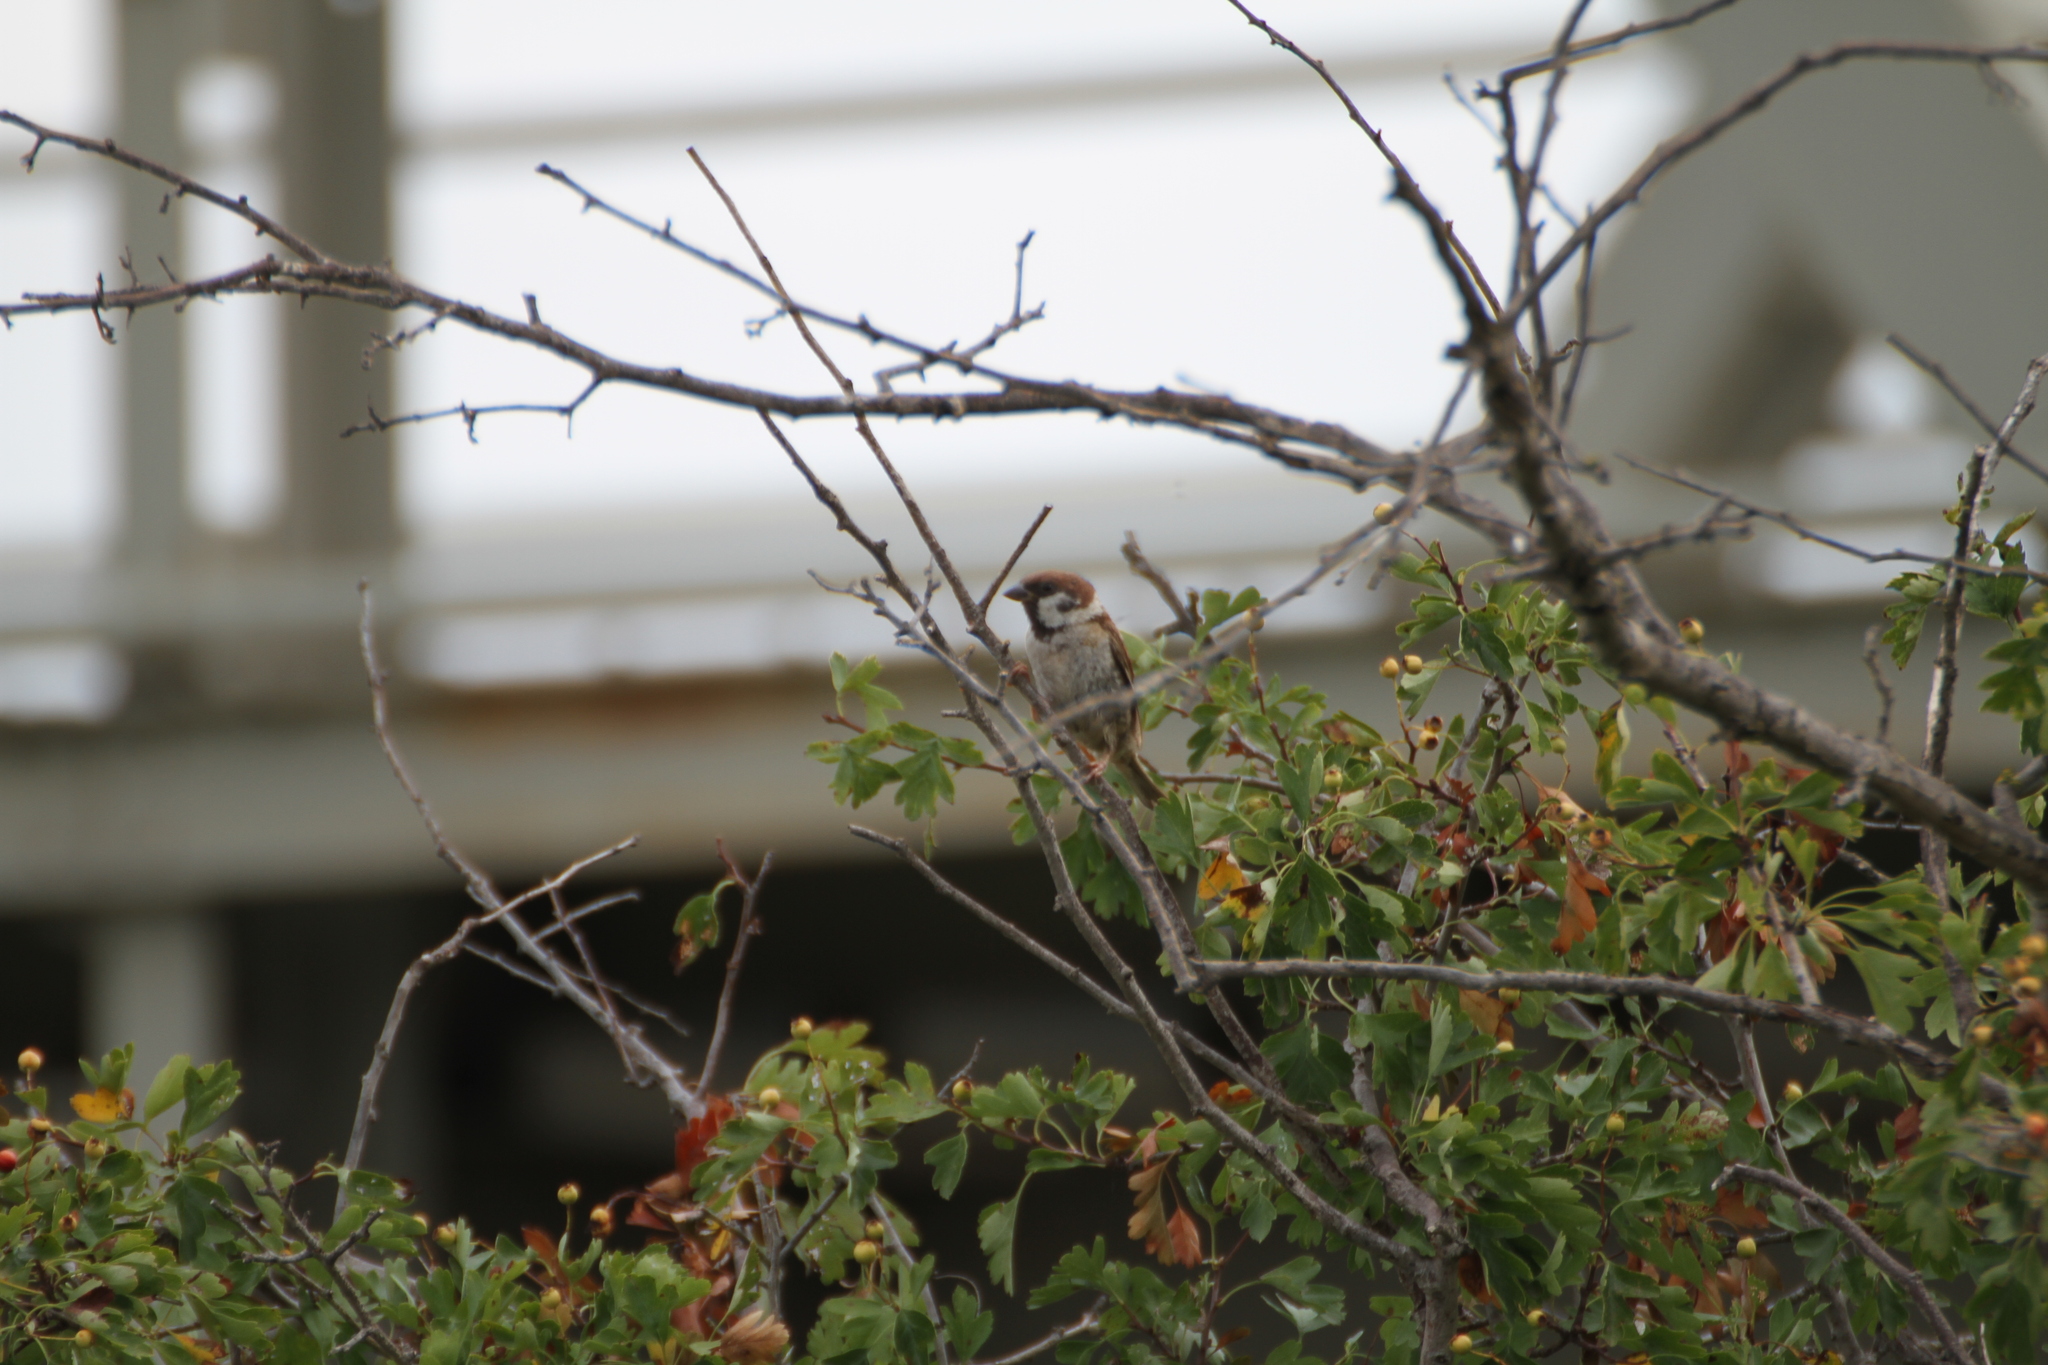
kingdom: Animalia
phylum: Chordata
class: Aves
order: Passeriformes
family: Passeridae
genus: Passer
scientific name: Passer montanus
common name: Eurasian tree sparrow
